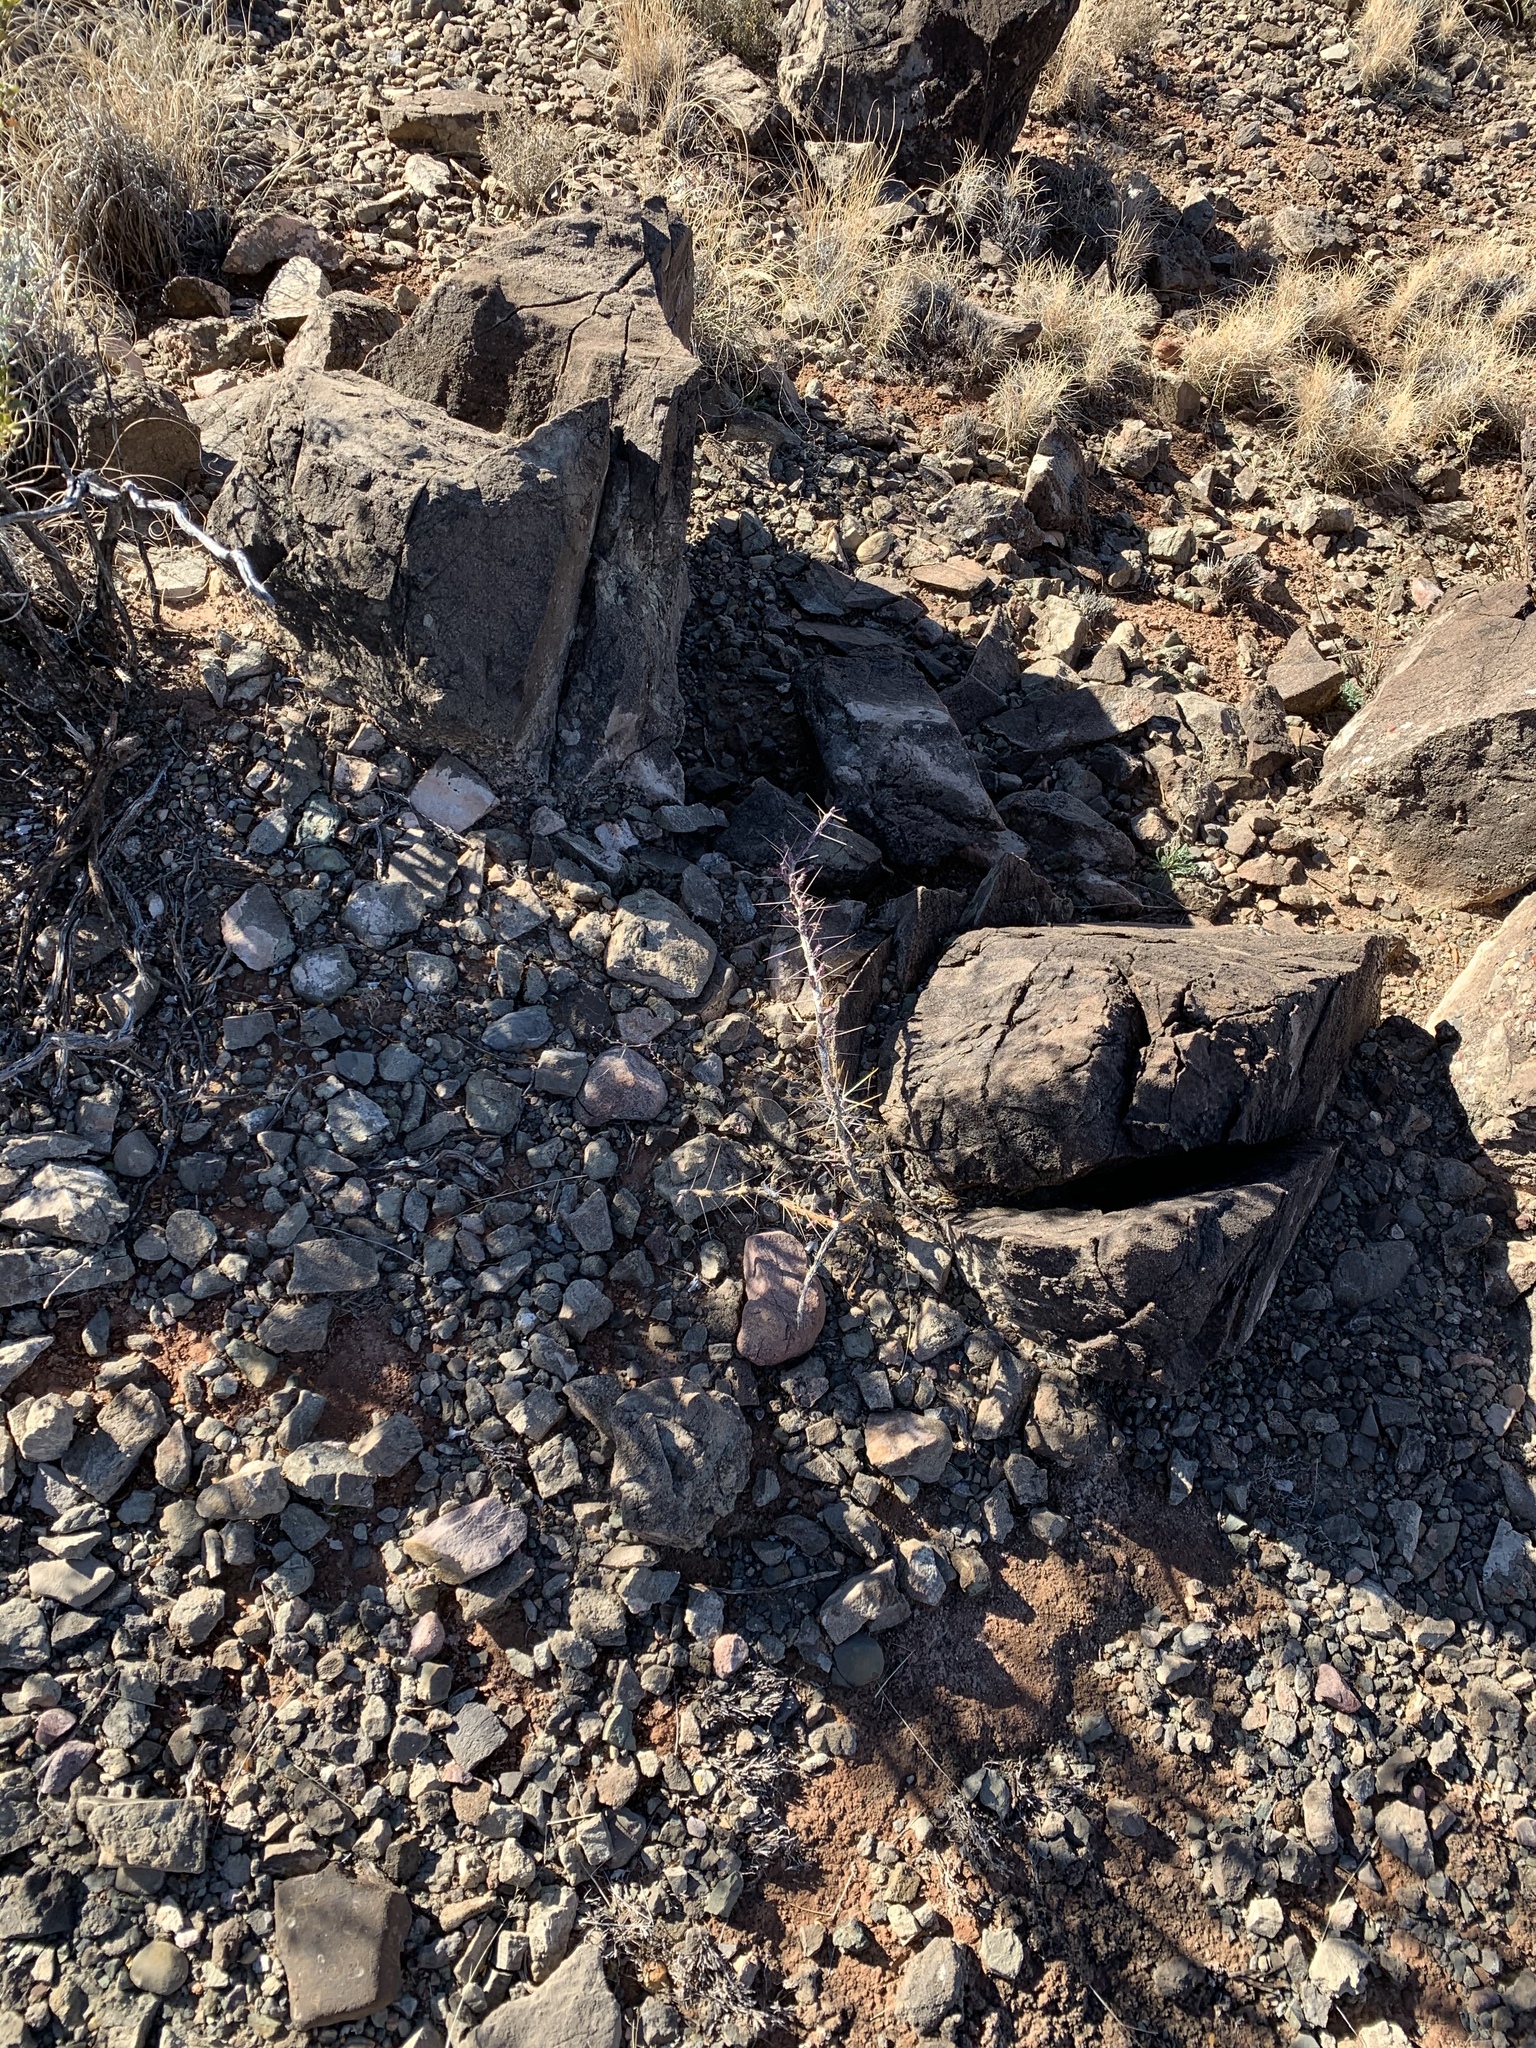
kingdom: Plantae
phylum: Tracheophyta
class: Magnoliopsida
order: Caryophyllales
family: Cactaceae
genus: Cylindropuntia
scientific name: Cylindropuntia leptocaulis
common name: Christmas cactus
